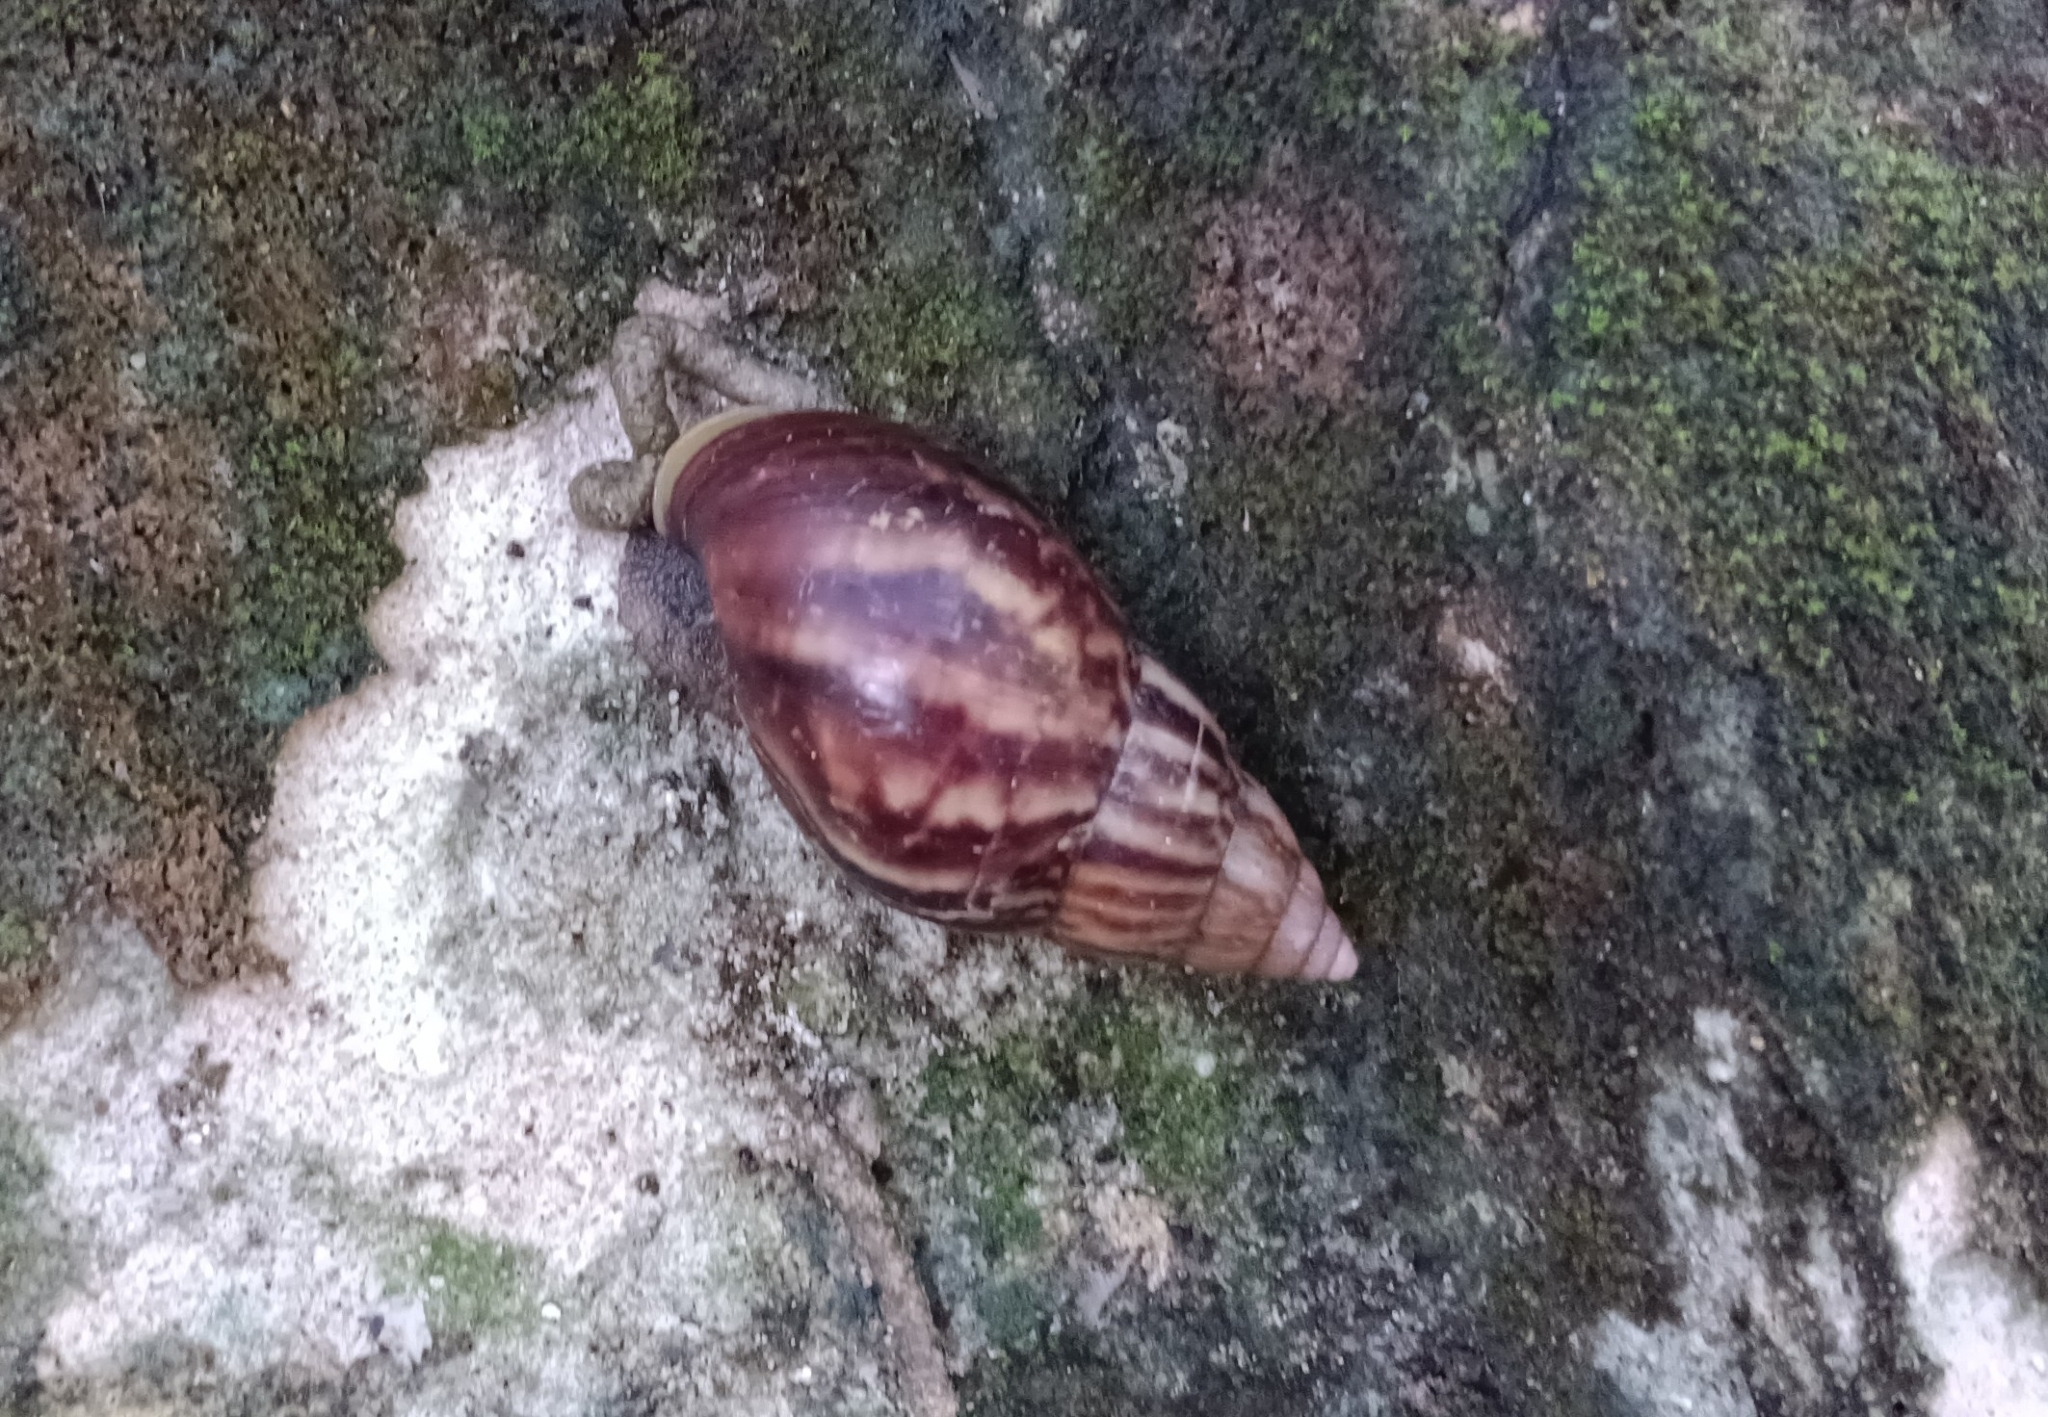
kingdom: Animalia
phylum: Mollusca
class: Gastropoda
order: Stylommatophora
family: Achatinidae
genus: Lissachatina
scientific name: Lissachatina fulica
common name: Giant african snail
